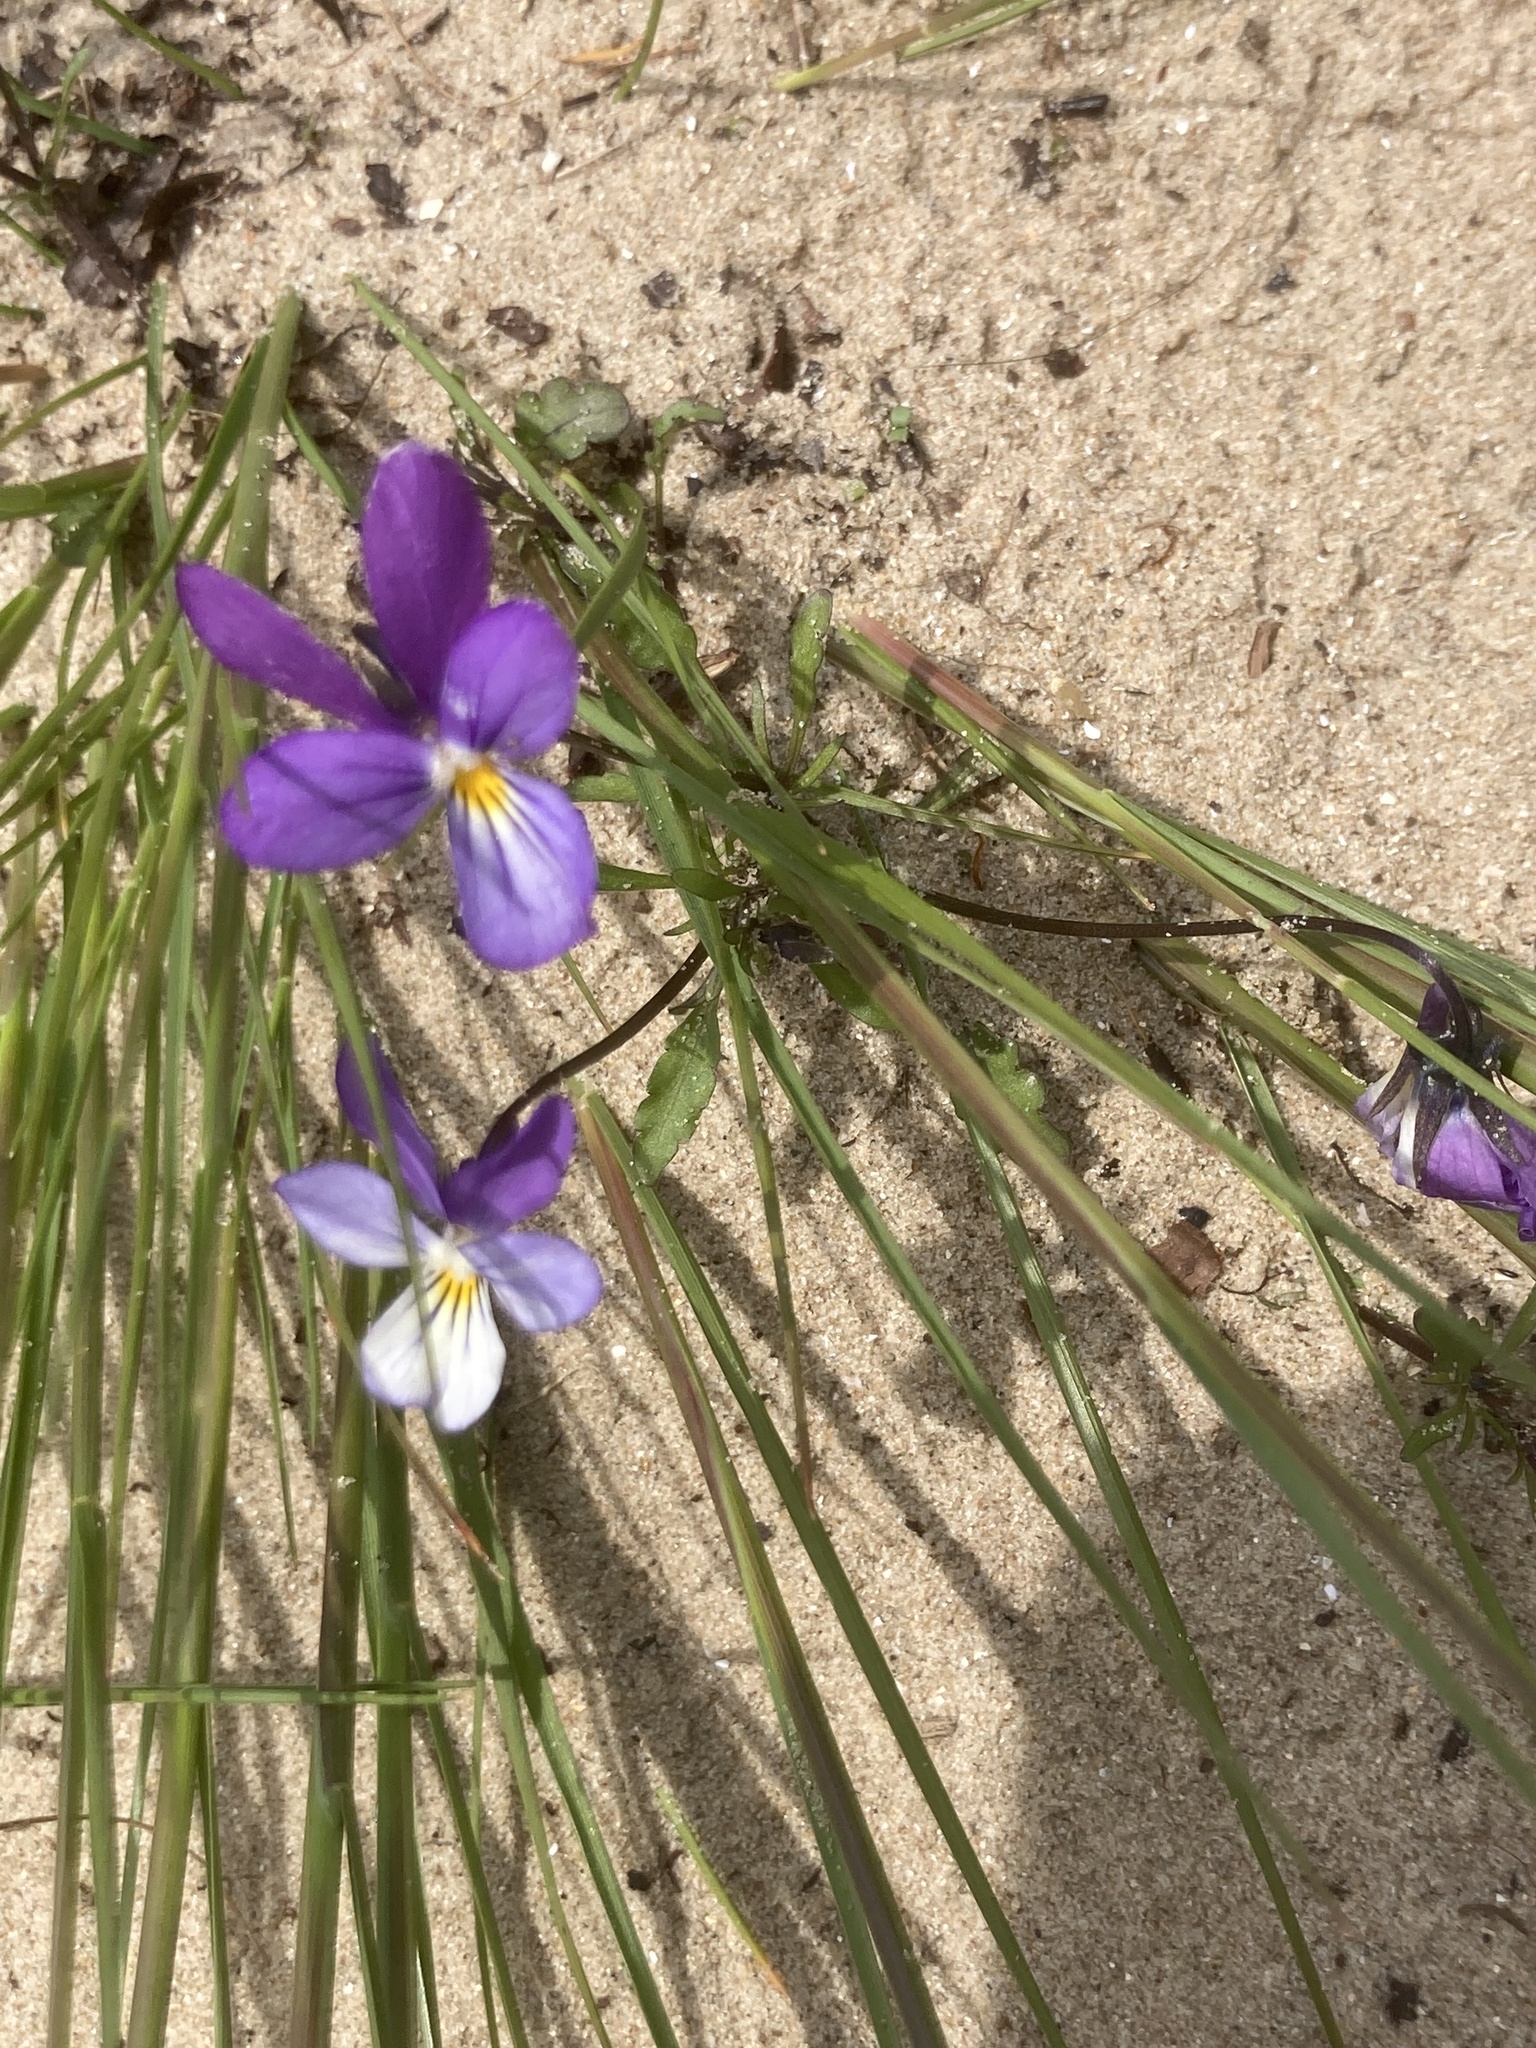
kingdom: Plantae
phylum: Tracheophyta
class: Magnoliopsida
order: Malpighiales
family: Violaceae
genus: Viola
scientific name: Viola tricolor
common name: Pansy
